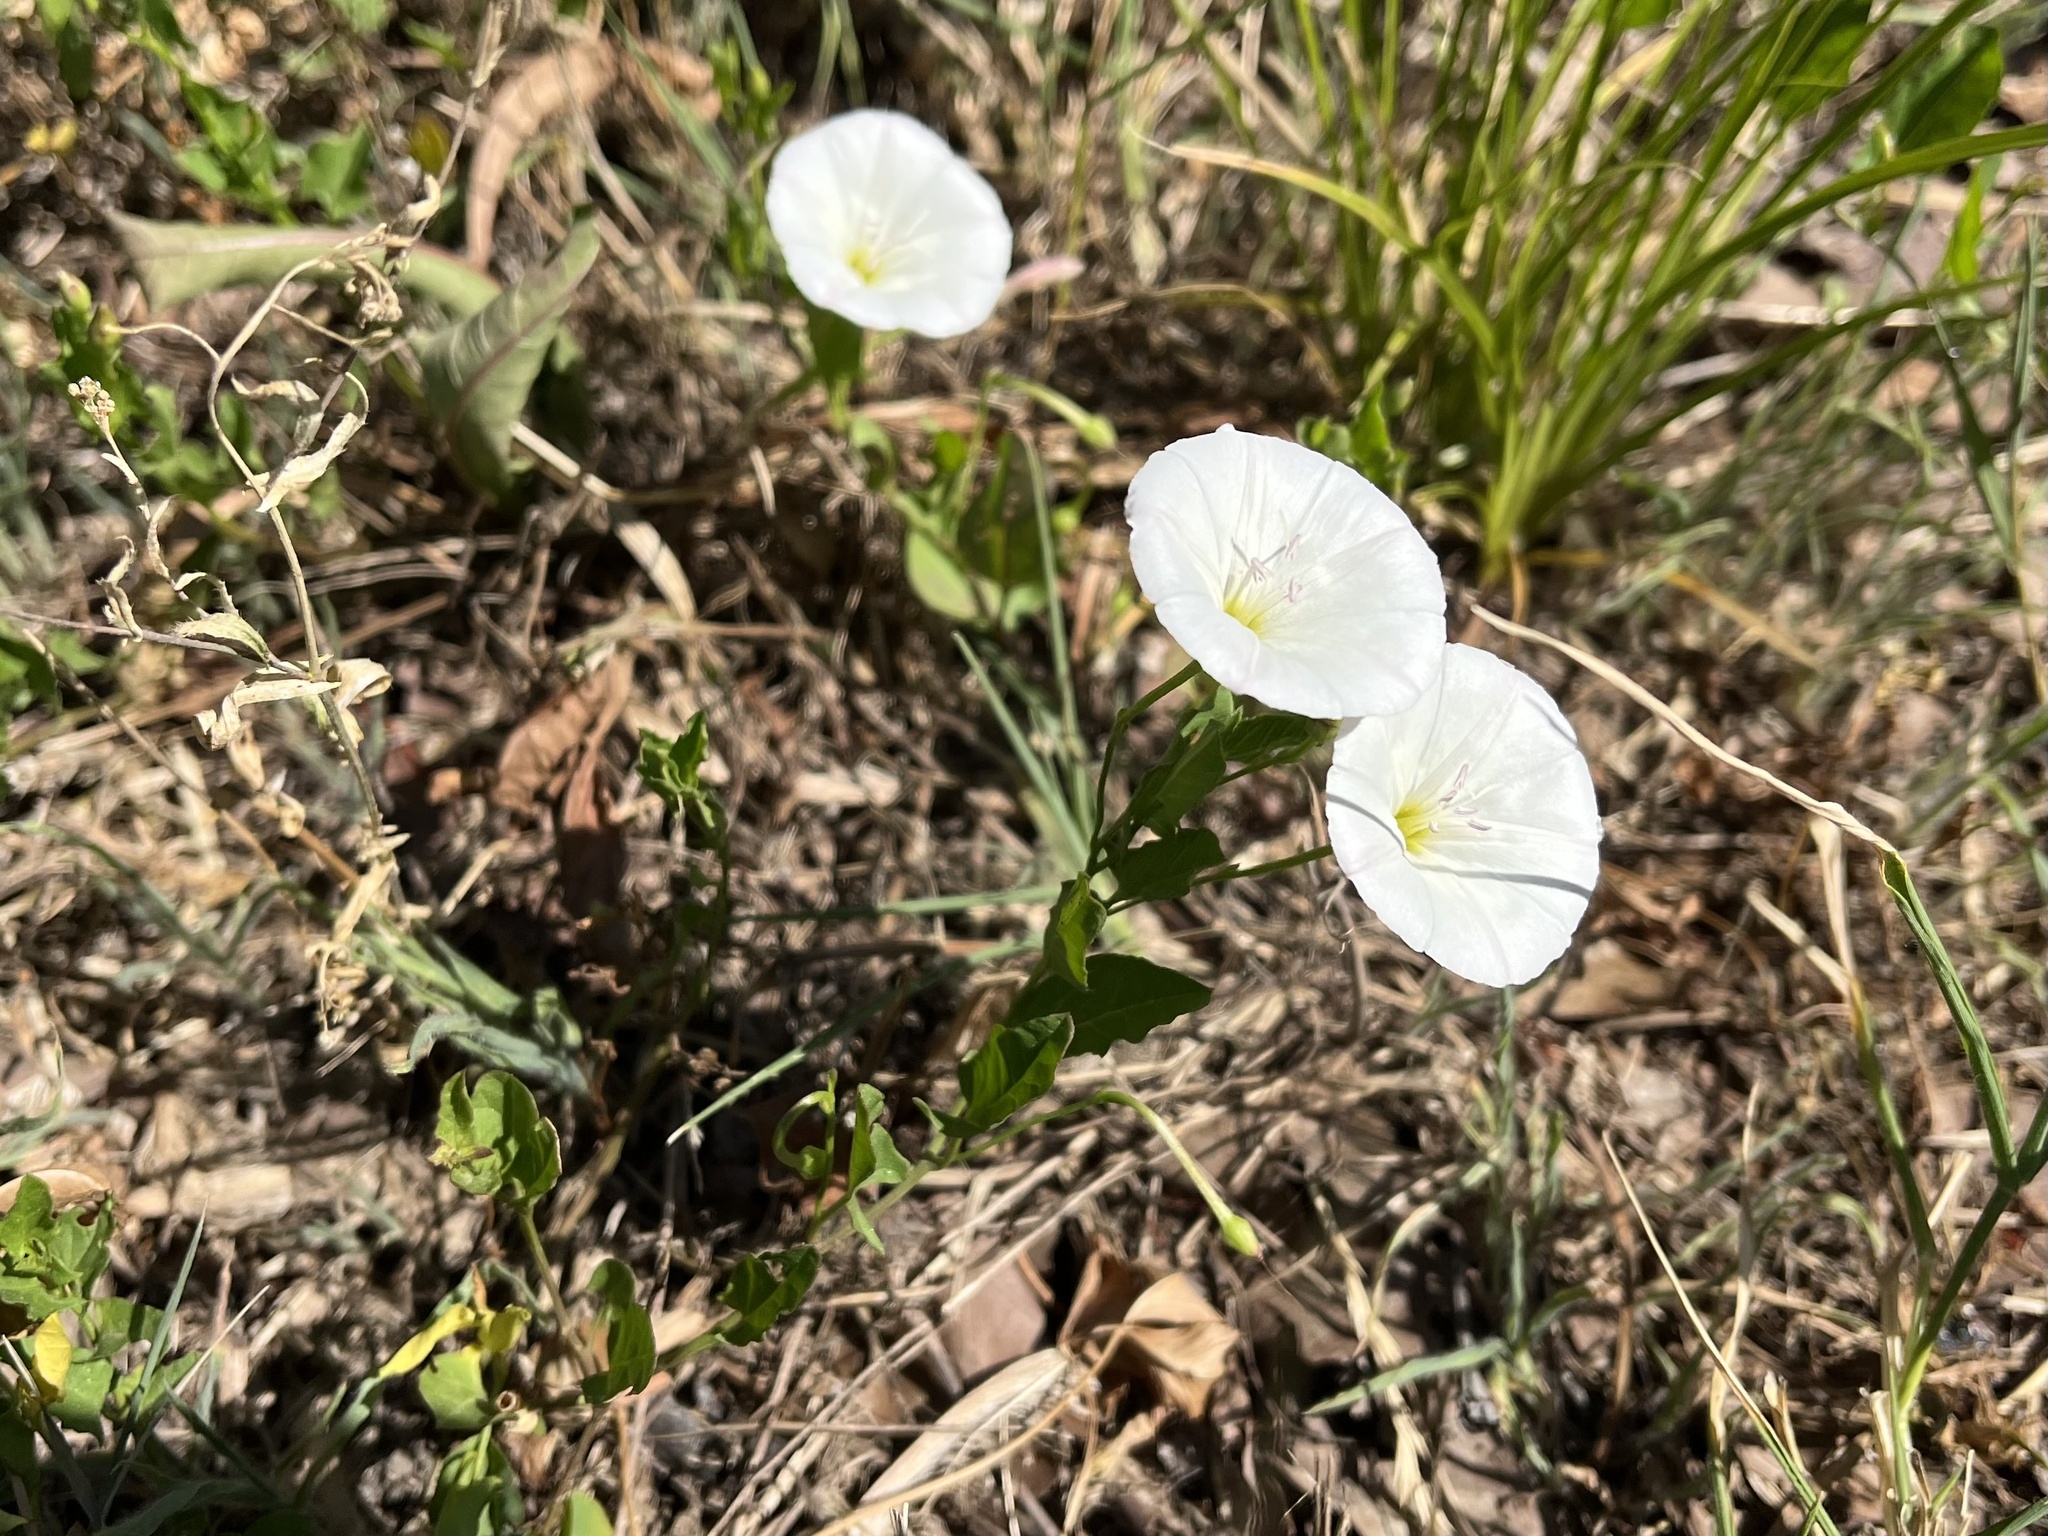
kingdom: Plantae
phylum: Tracheophyta
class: Magnoliopsida
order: Solanales
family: Convolvulaceae
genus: Convolvulus
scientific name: Convolvulus arvensis
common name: Field bindweed
